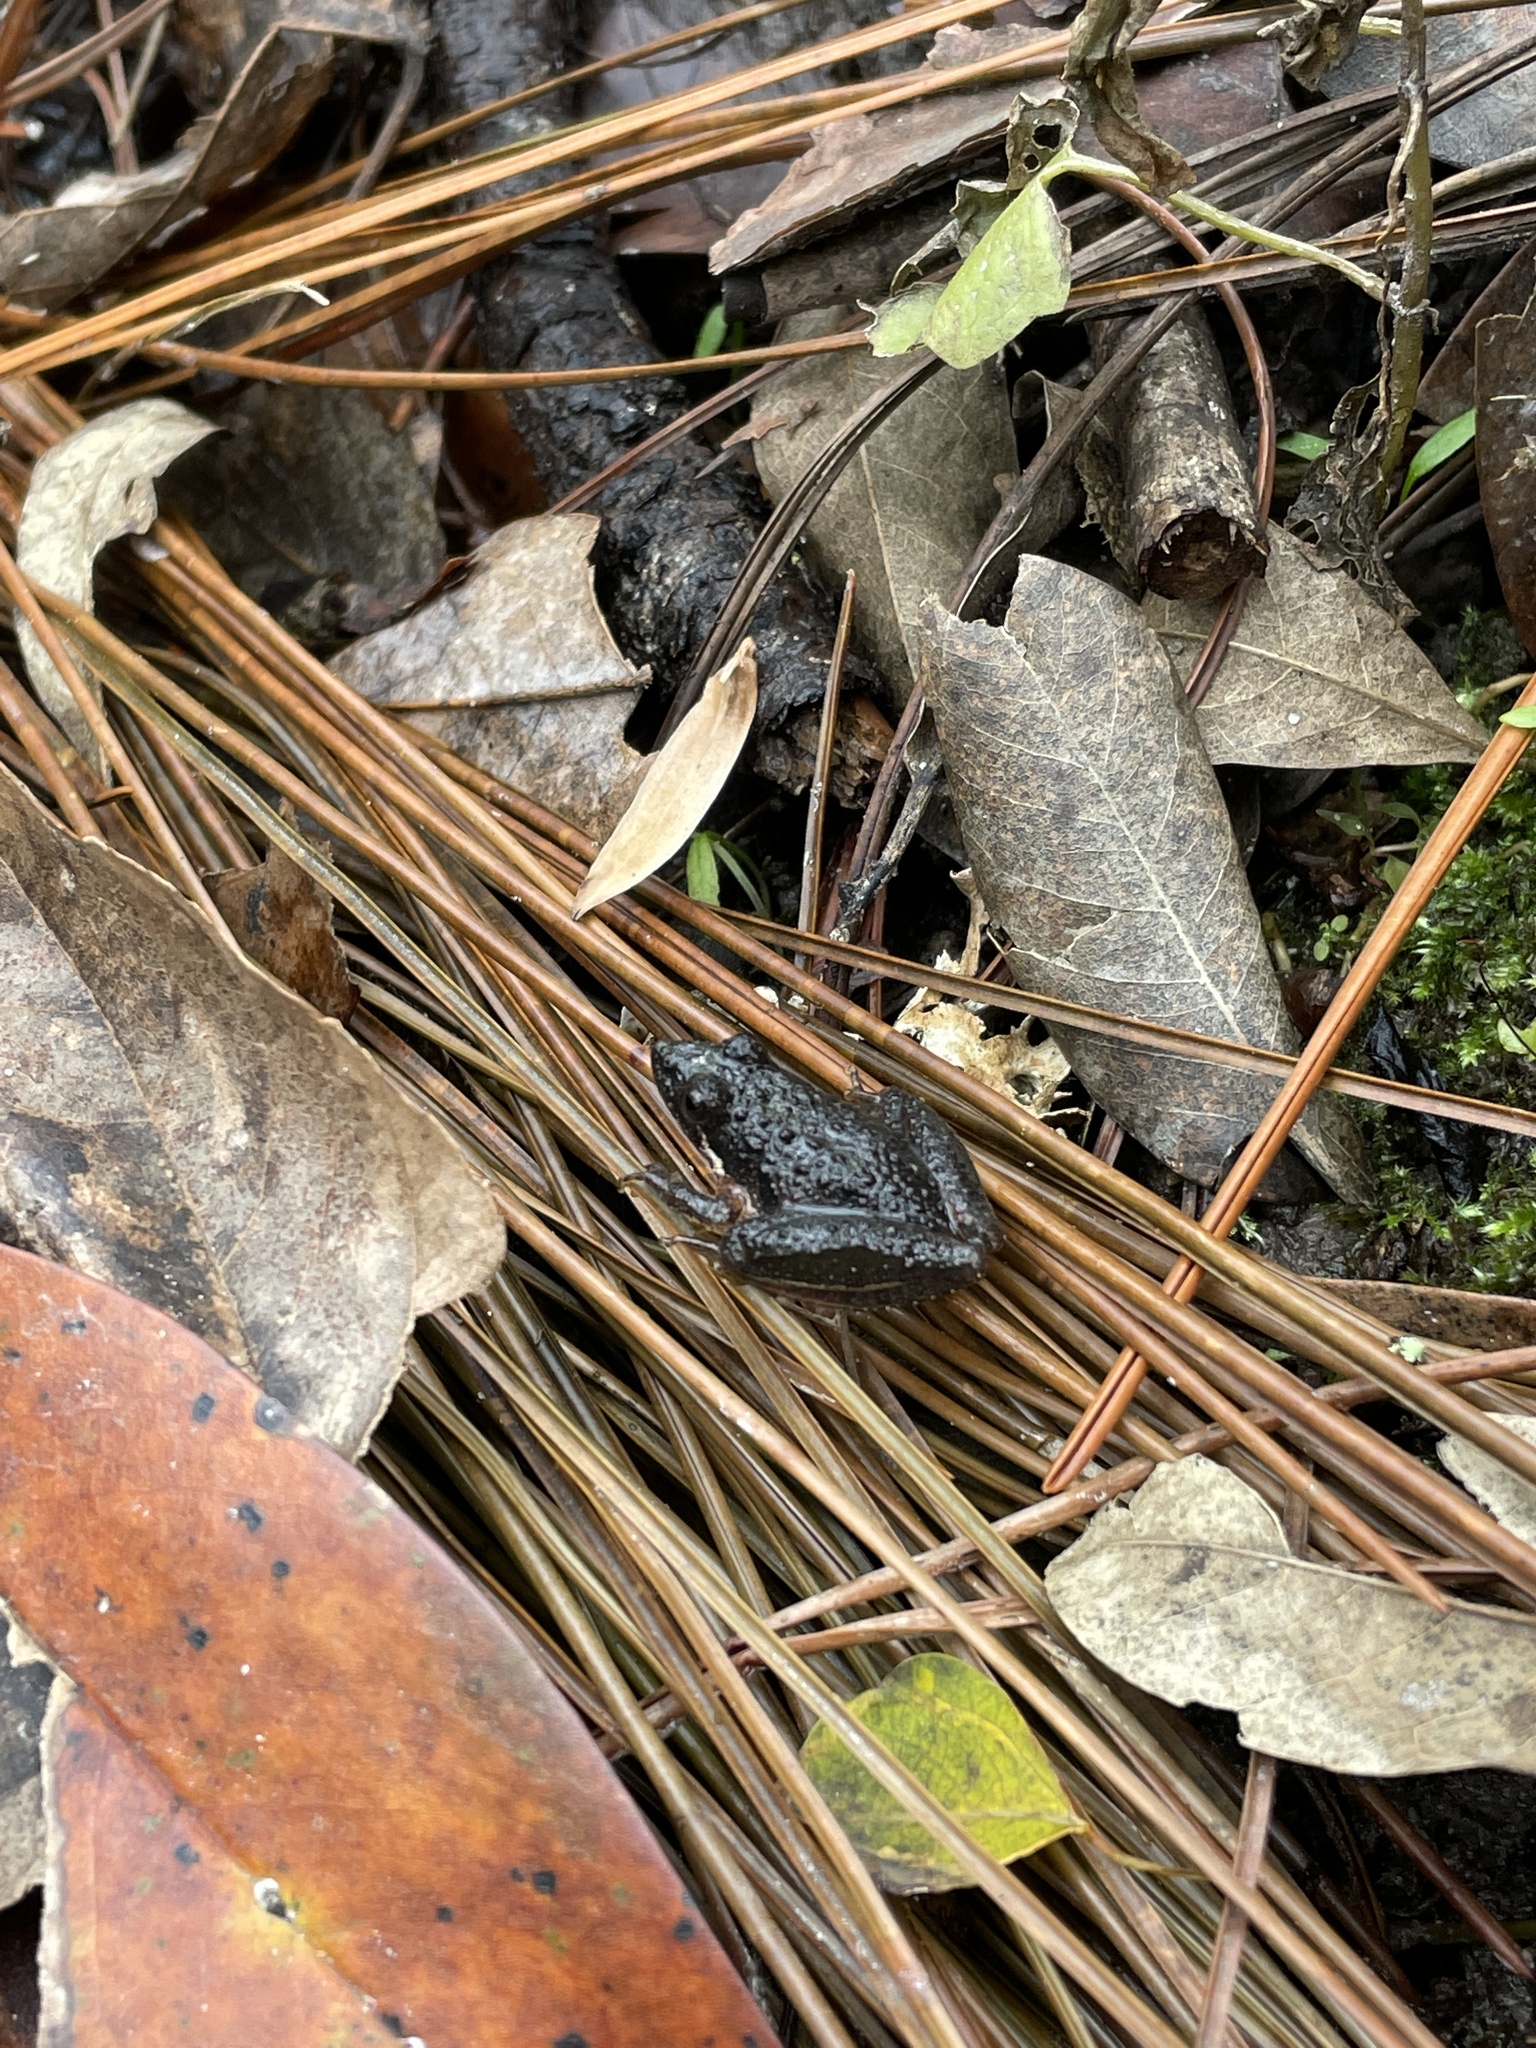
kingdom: Animalia
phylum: Chordata
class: Amphibia
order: Anura
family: Hylidae
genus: Acris
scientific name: Acris gryllus
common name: Southern cricket frog
